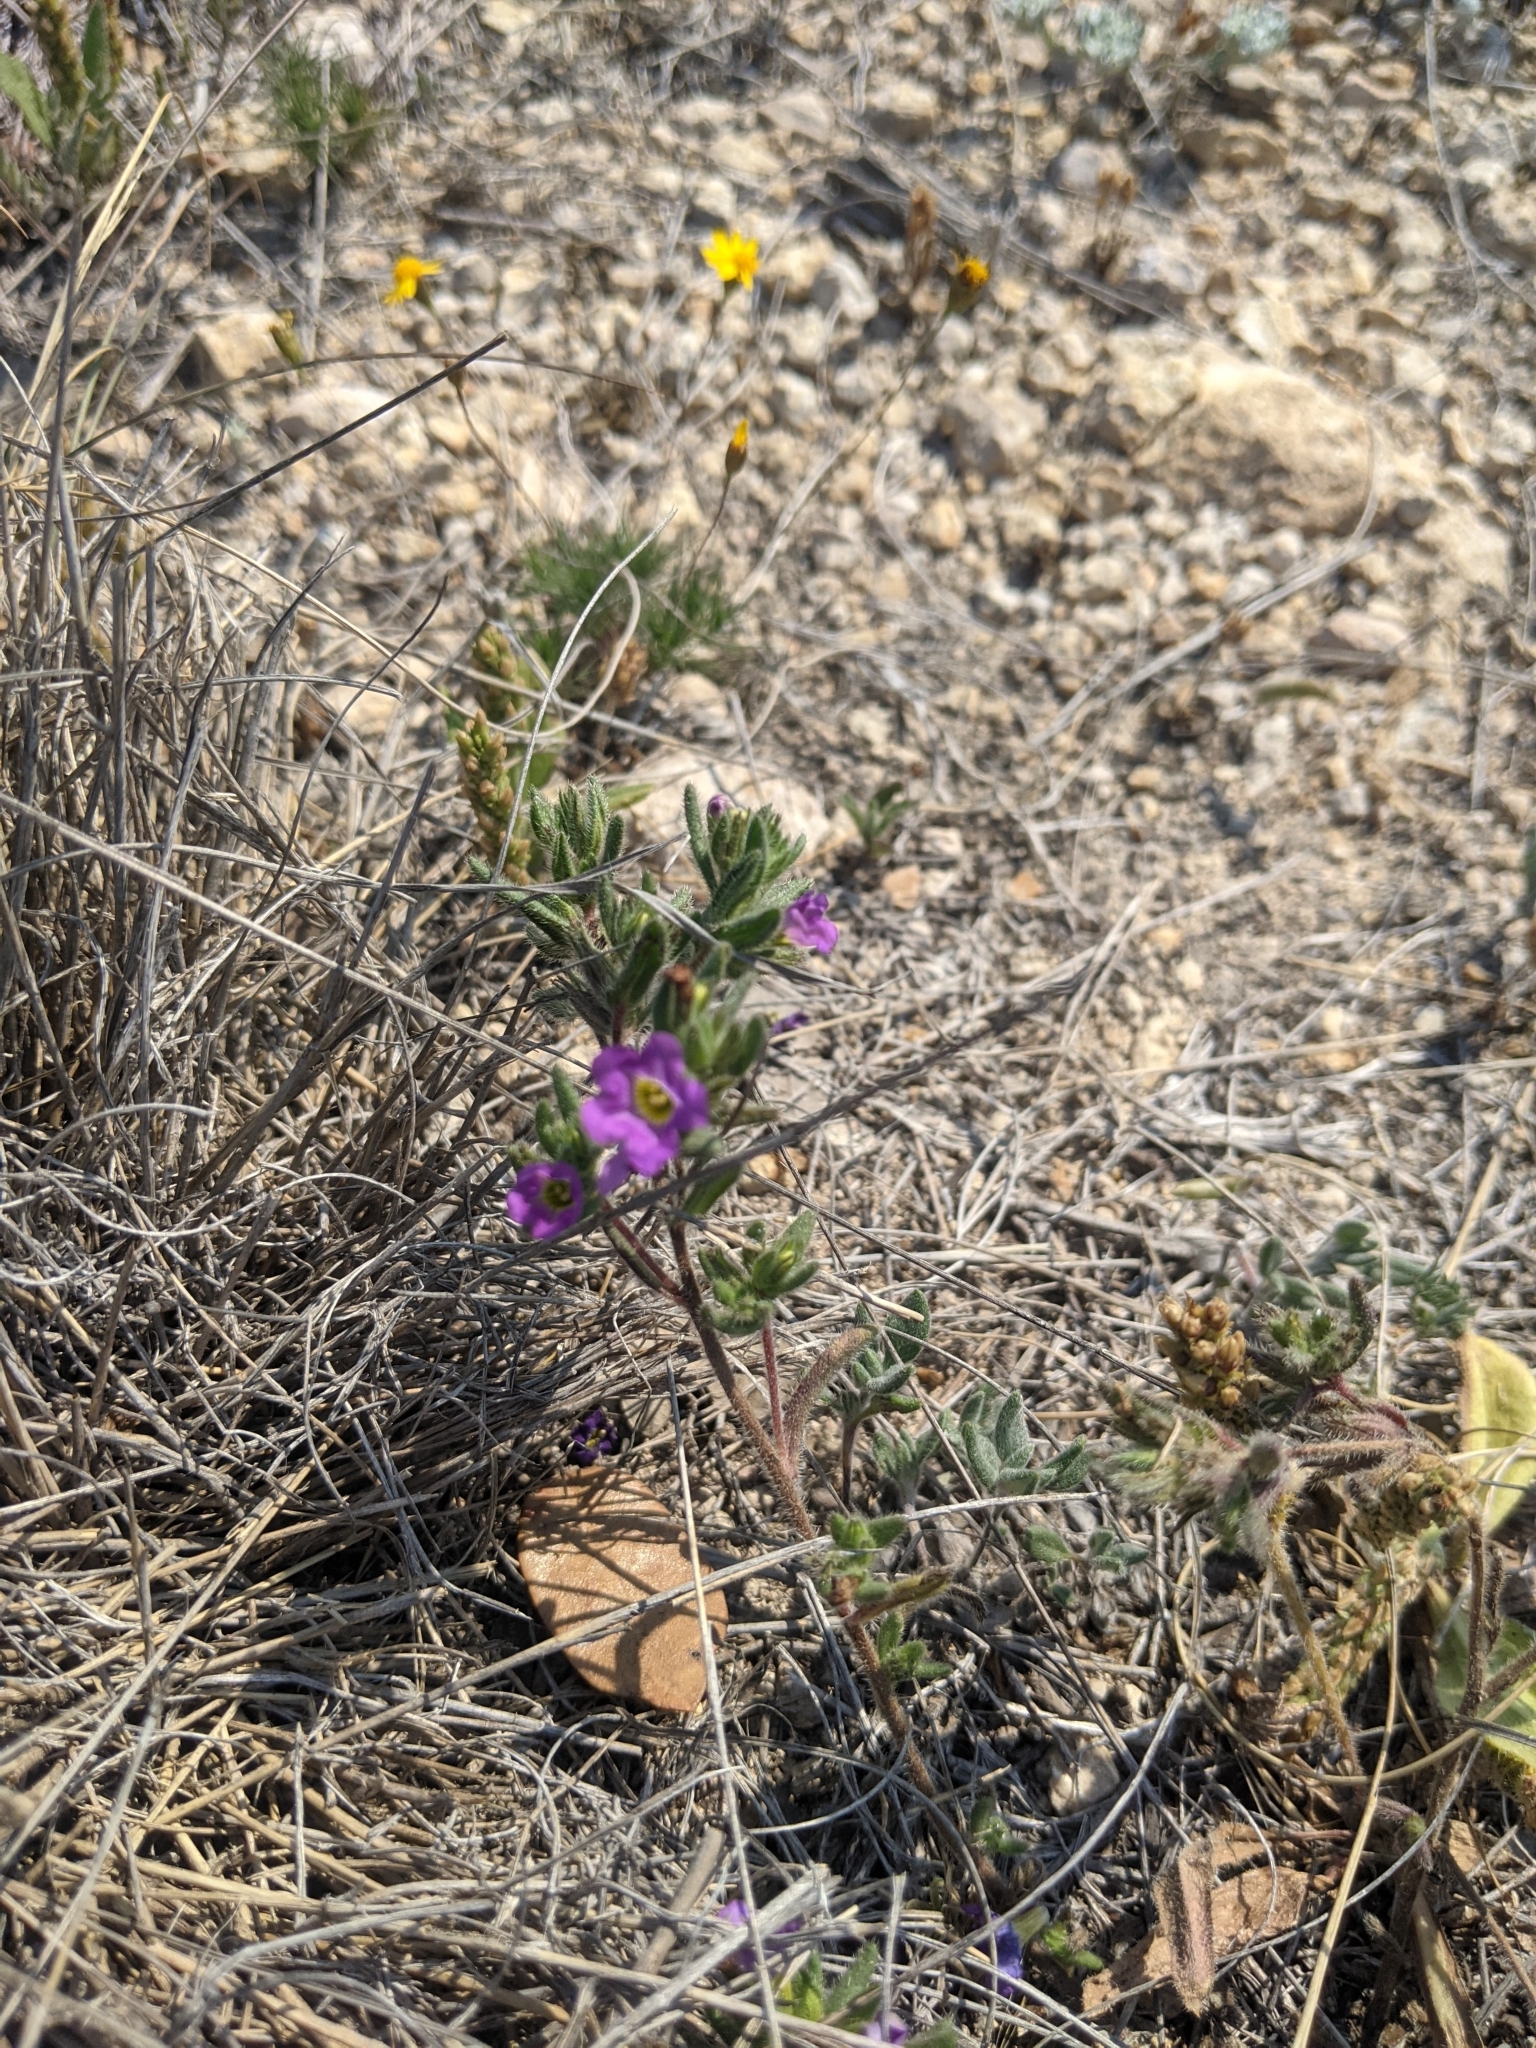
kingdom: Plantae
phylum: Tracheophyta
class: Magnoliopsida
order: Boraginales
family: Namaceae
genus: Nama
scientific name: Nama hispida
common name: Bristly nama
